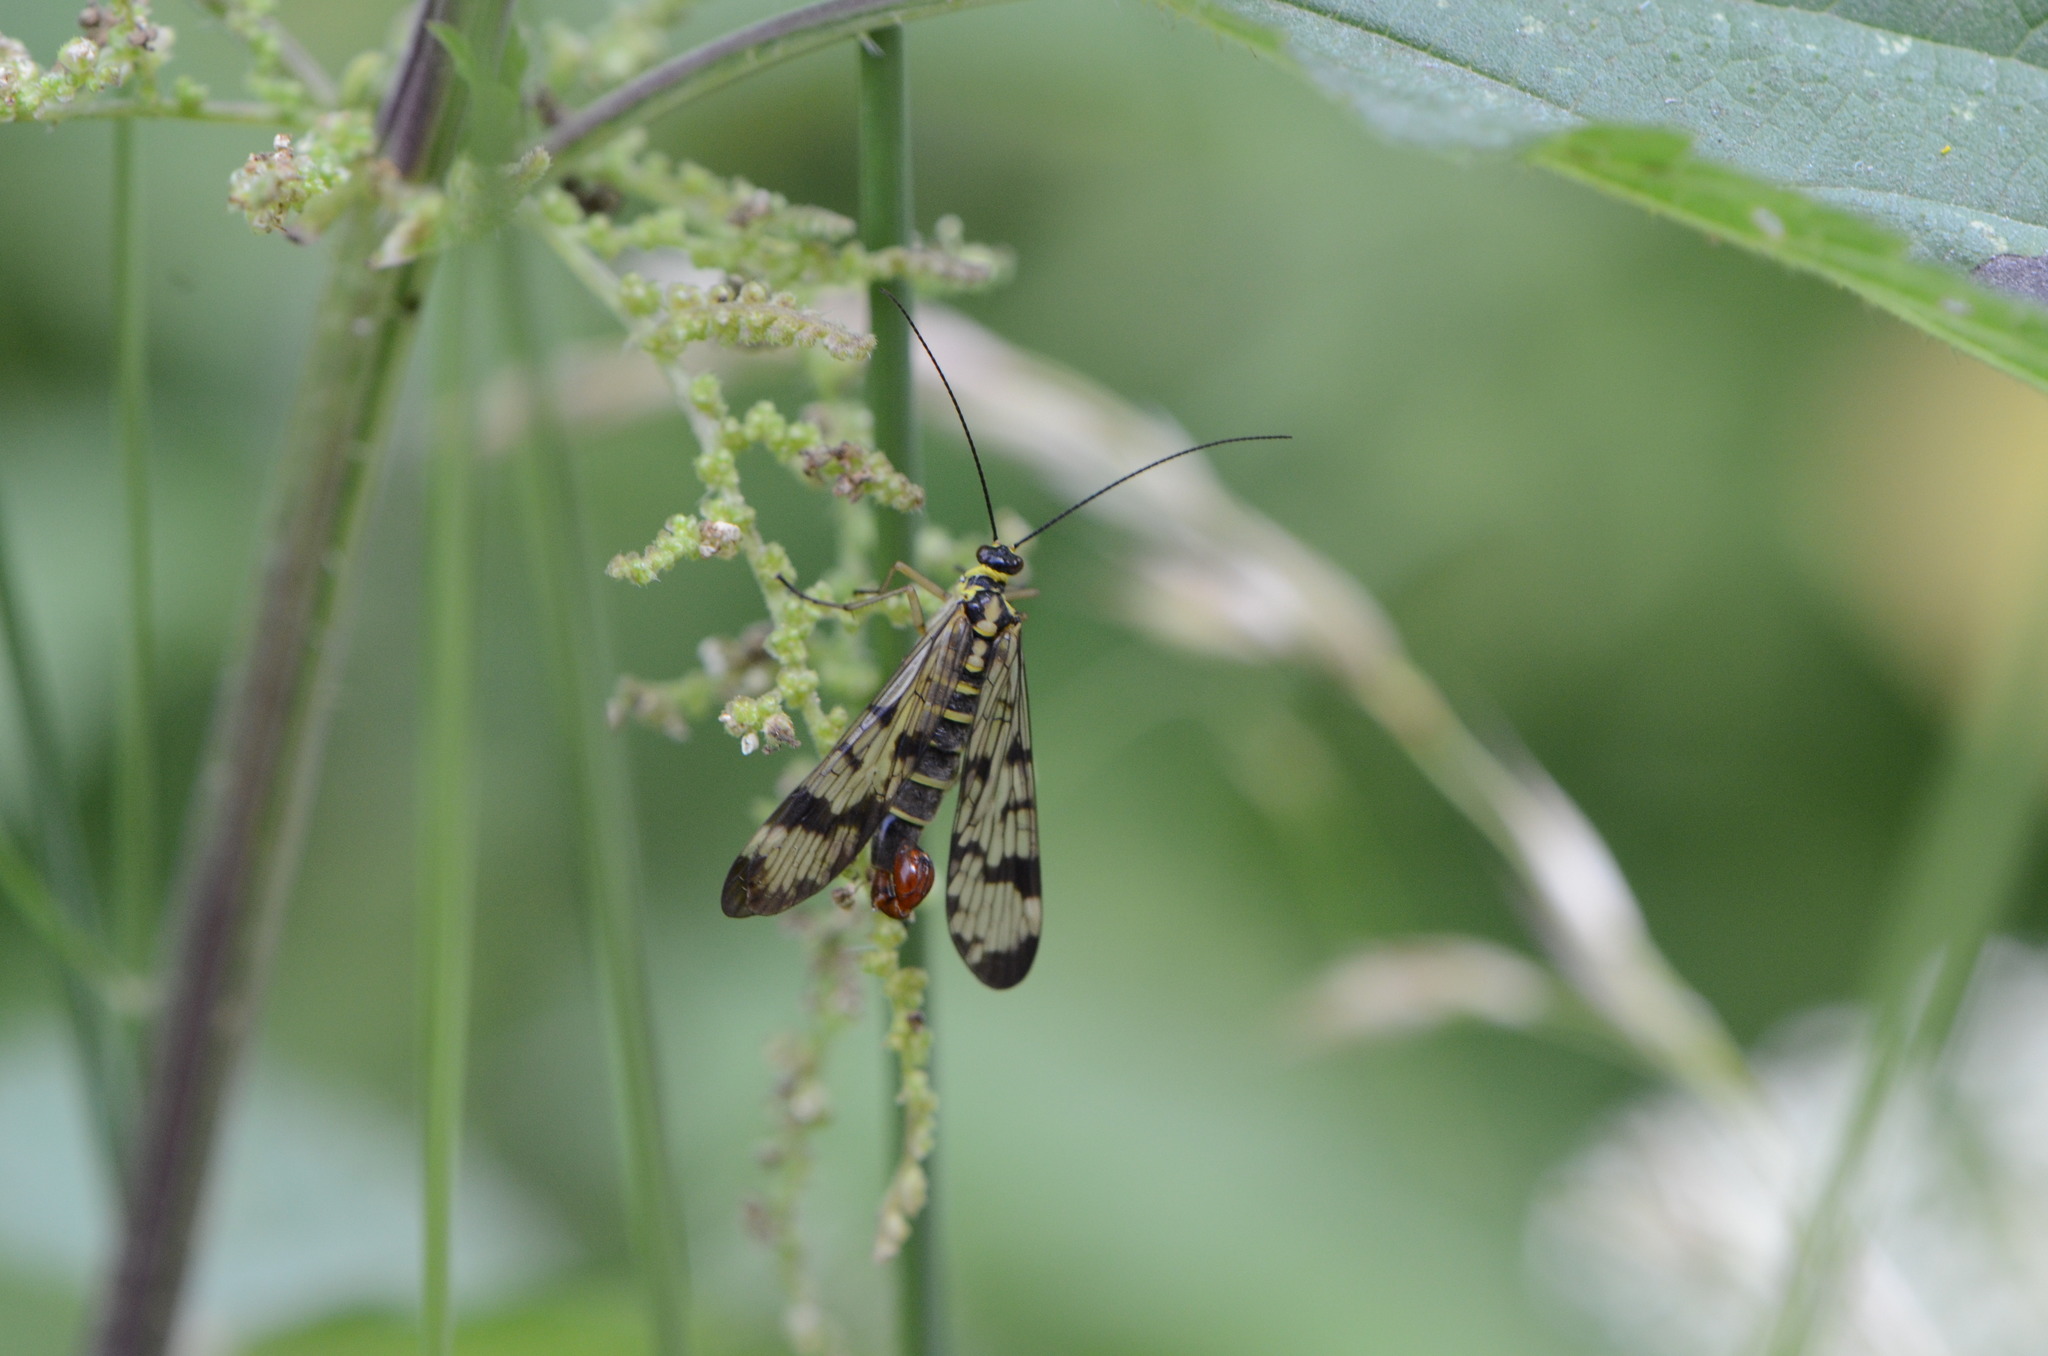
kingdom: Animalia
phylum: Arthropoda
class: Insecta
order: Mecoptera
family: Panorpidae
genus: Panorpa
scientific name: Panorpa communis
